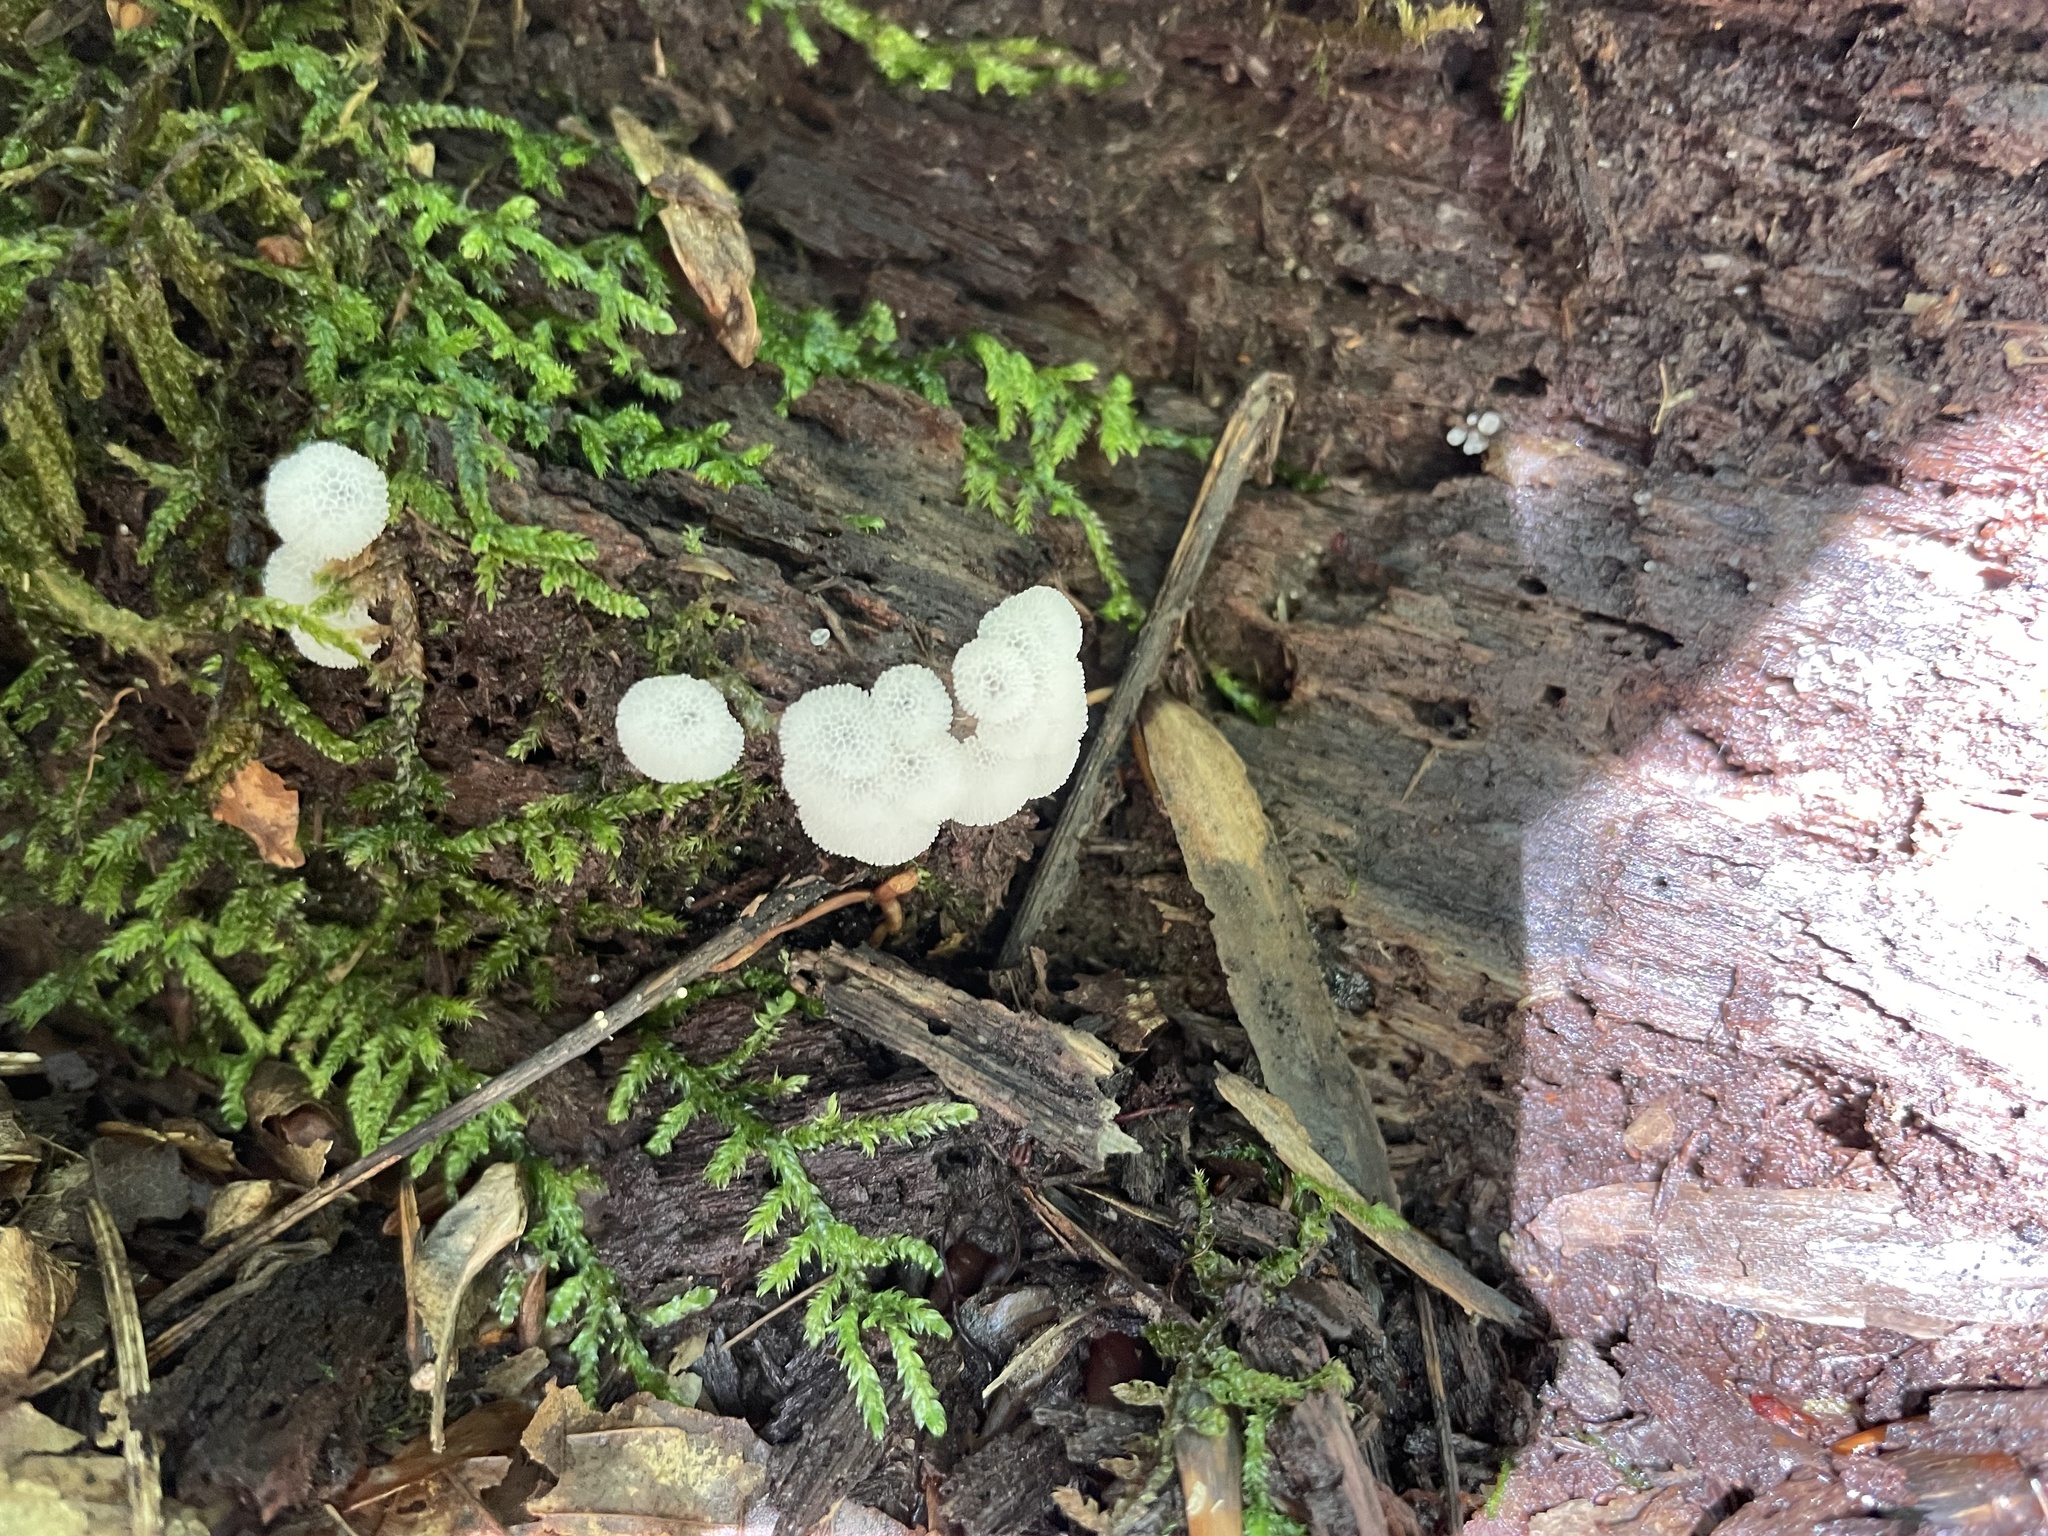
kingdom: Protozoa
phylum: Mycetozoa
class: Protosteliomycetes
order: Ceratiomyxales
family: Ceratiomyxaceae
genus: Ceratiomyxa
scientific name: Ceratiomyxa fruticulosa
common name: Honeycomb coral slime mold
